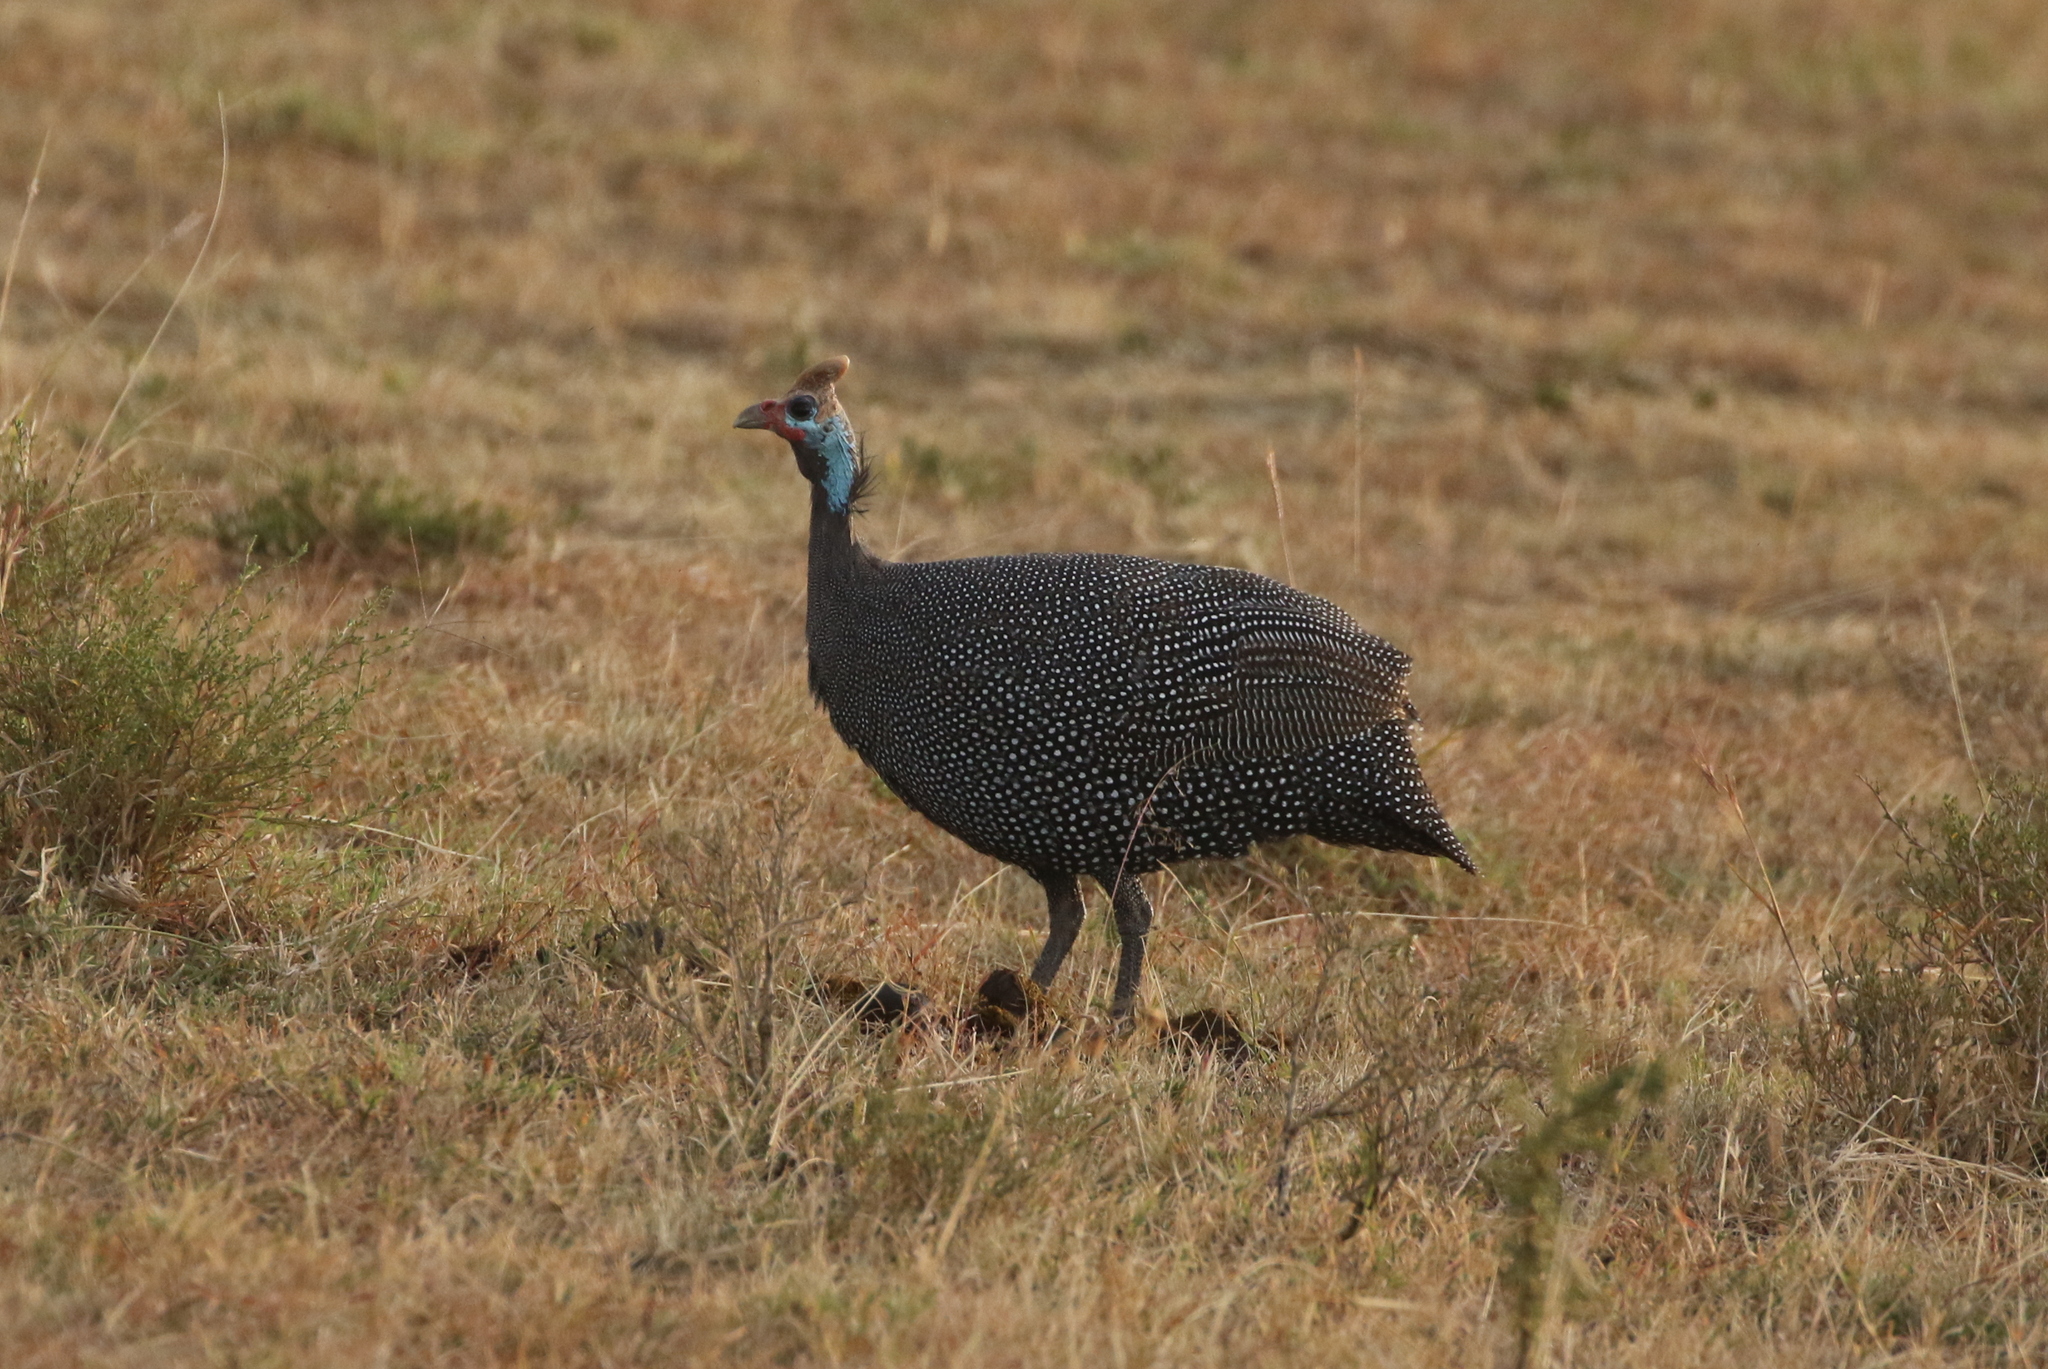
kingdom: Animalia
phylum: Chordata
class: Aves
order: Galliformes
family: Numididae
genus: Numida
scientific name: Numida meleagris
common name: Helmeted guineafowl
